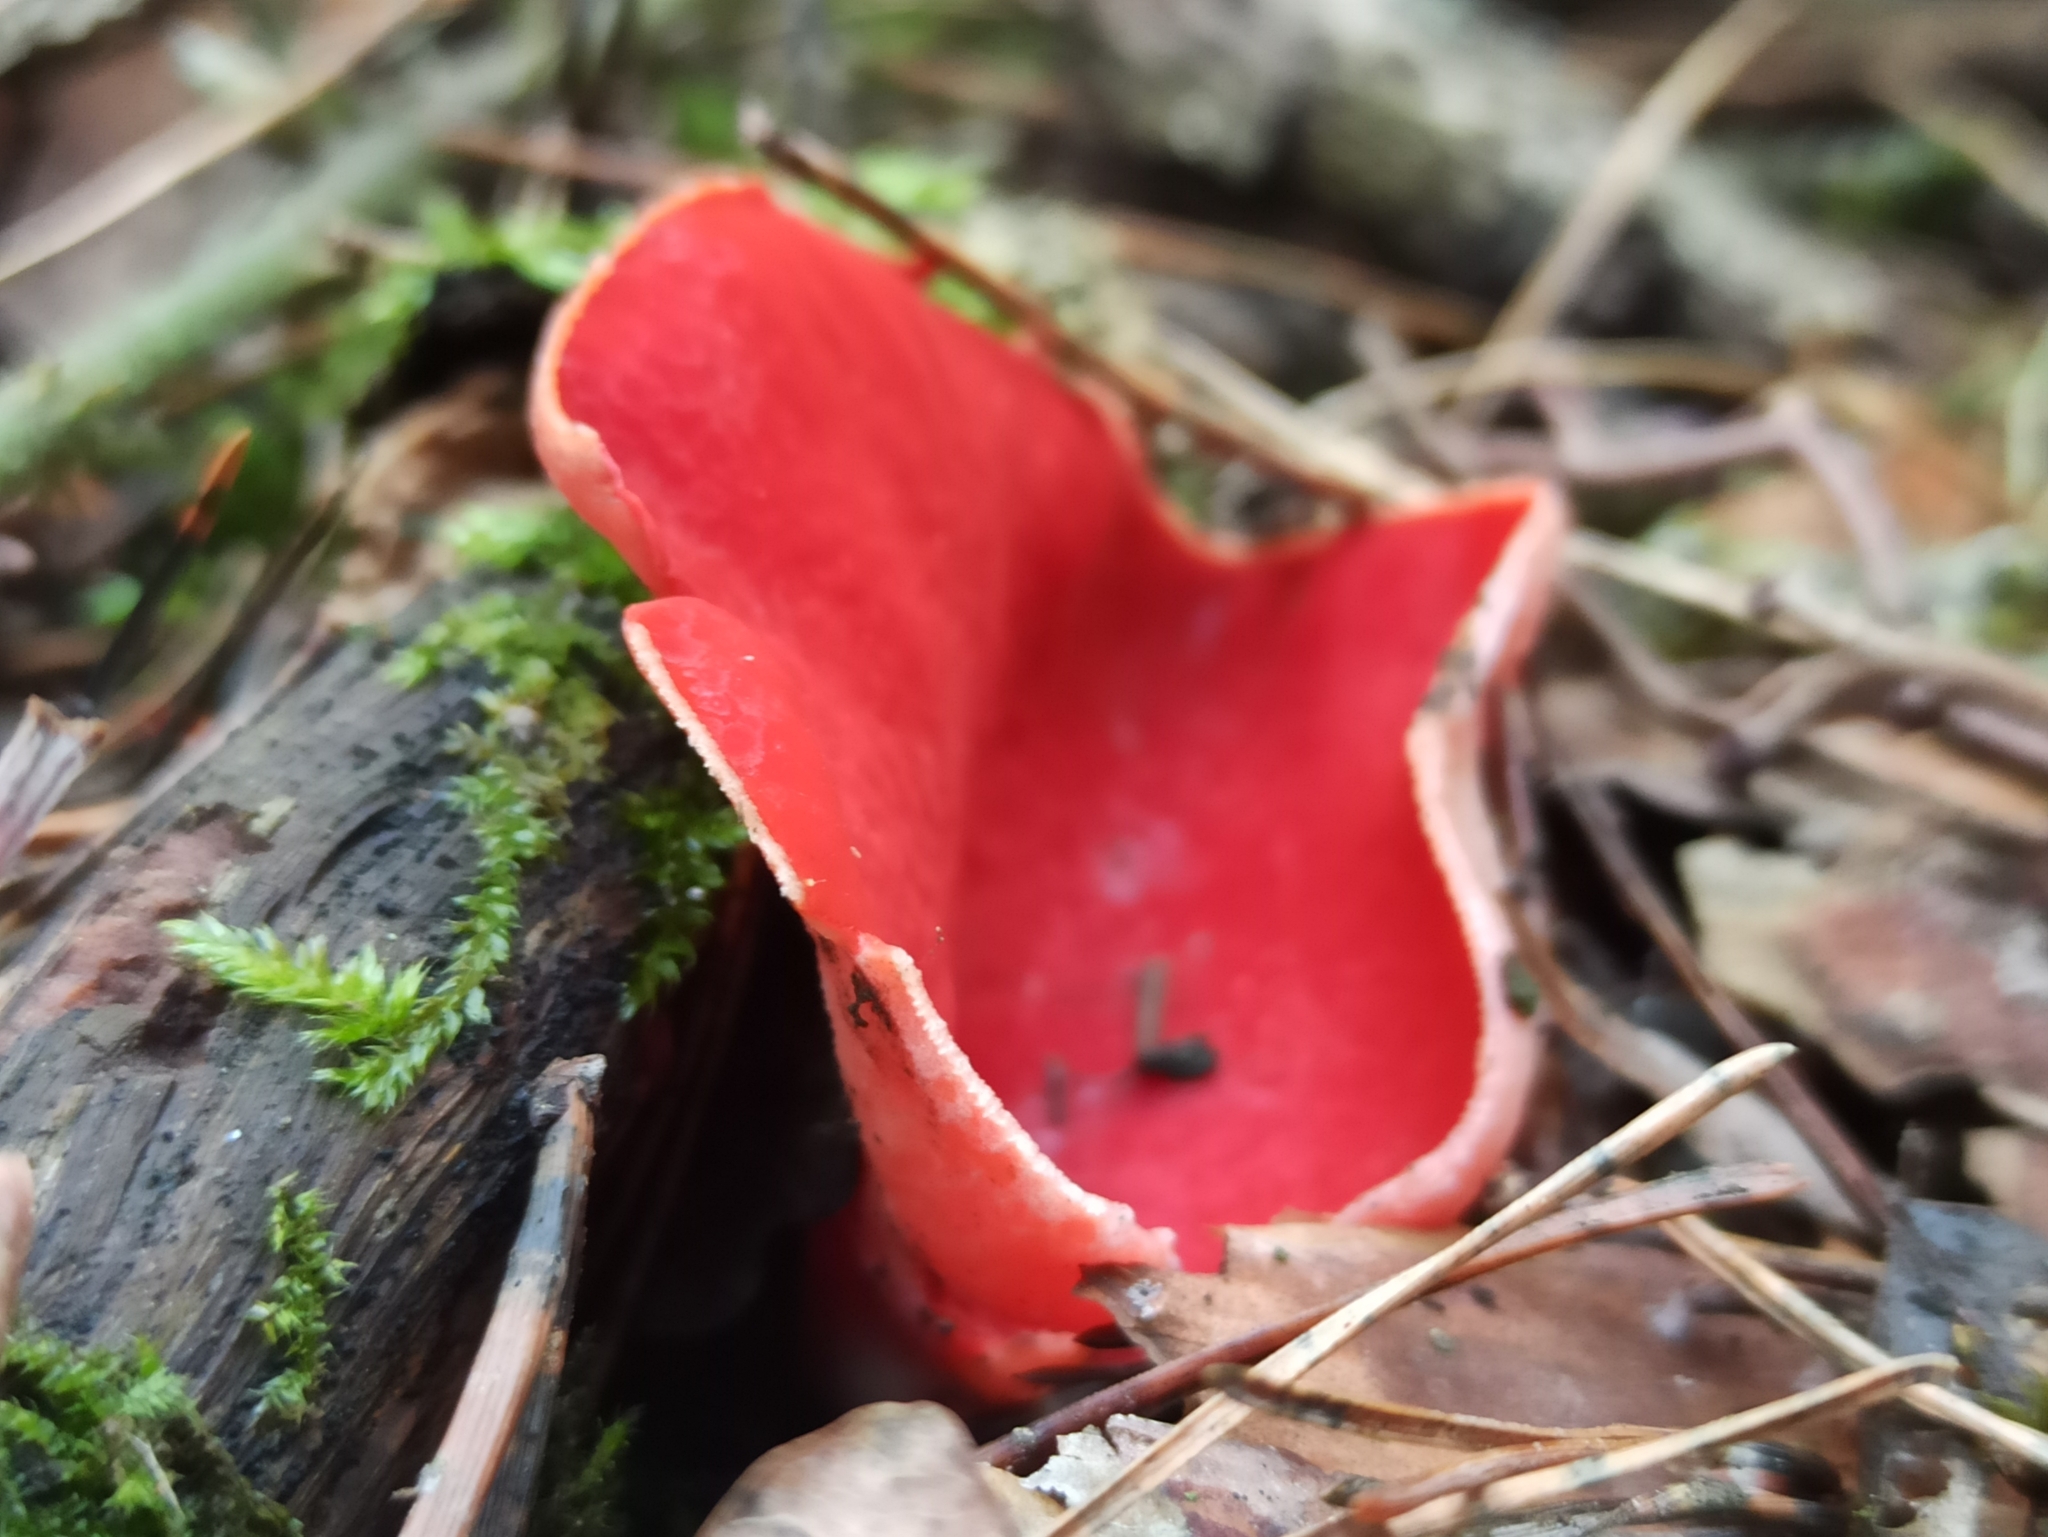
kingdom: Fungi
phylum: Ascomycota
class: Pezizomycetes
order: Pezizales
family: Sarcoscyphaceae
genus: Sarcoscypha
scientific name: Sarcoscypha
